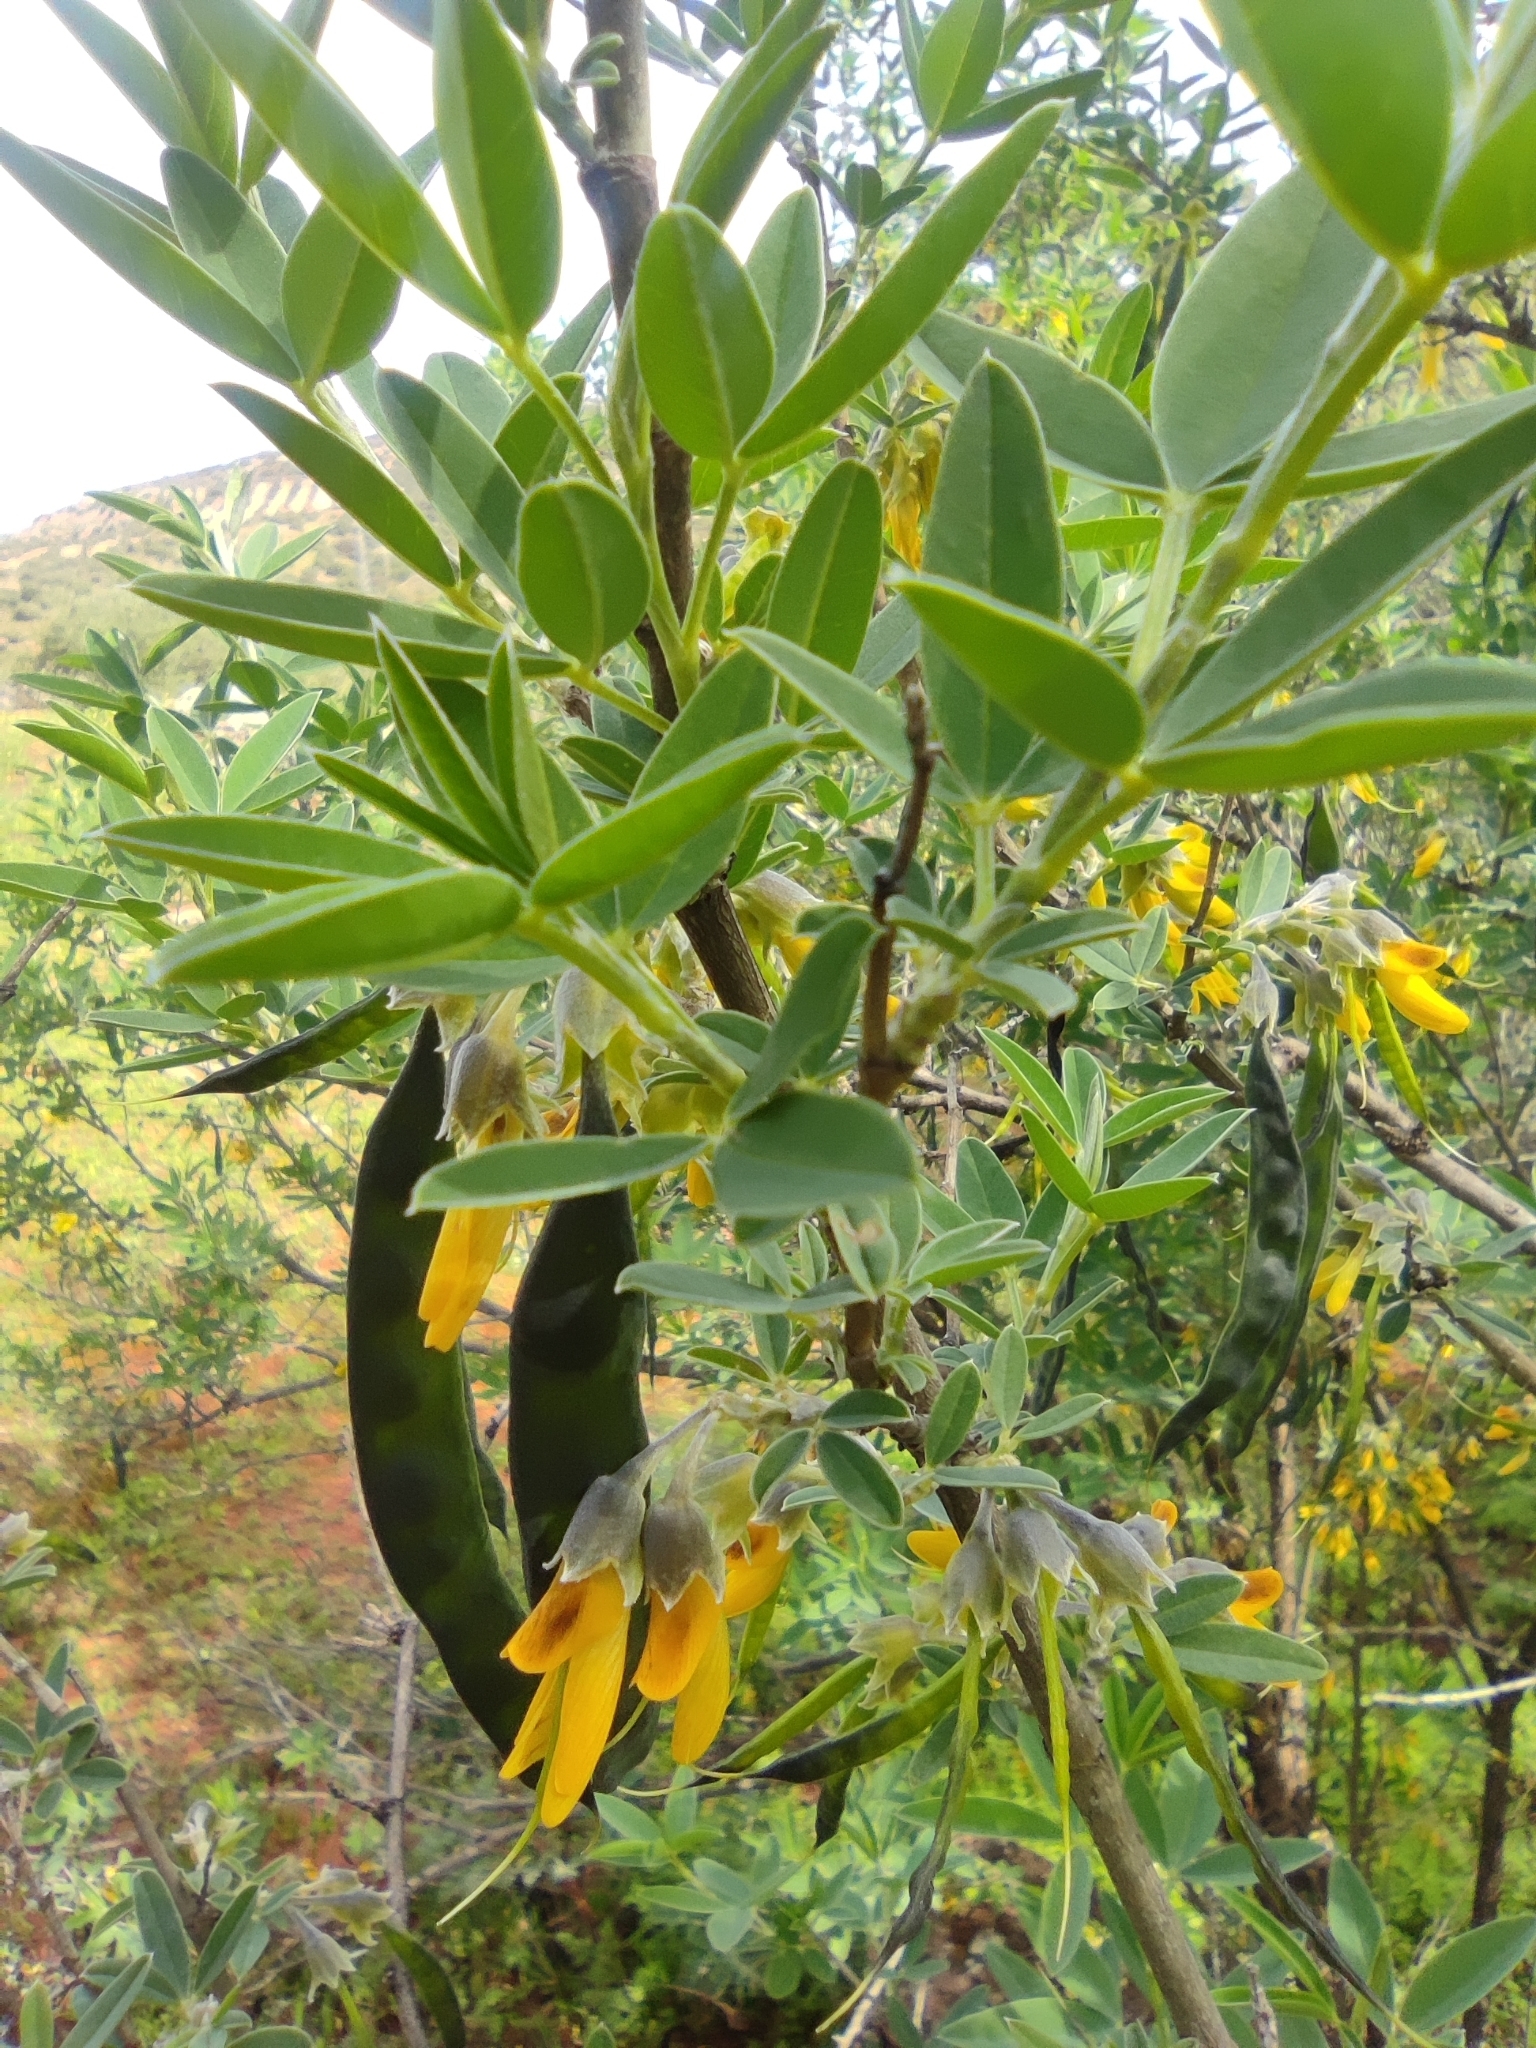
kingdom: Plantae
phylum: Tracheophyta
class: Magnoliopsida
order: Fabales
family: Fabaceae
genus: Anagyris
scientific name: Anagyris foetida
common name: Stinking bean trefoil
